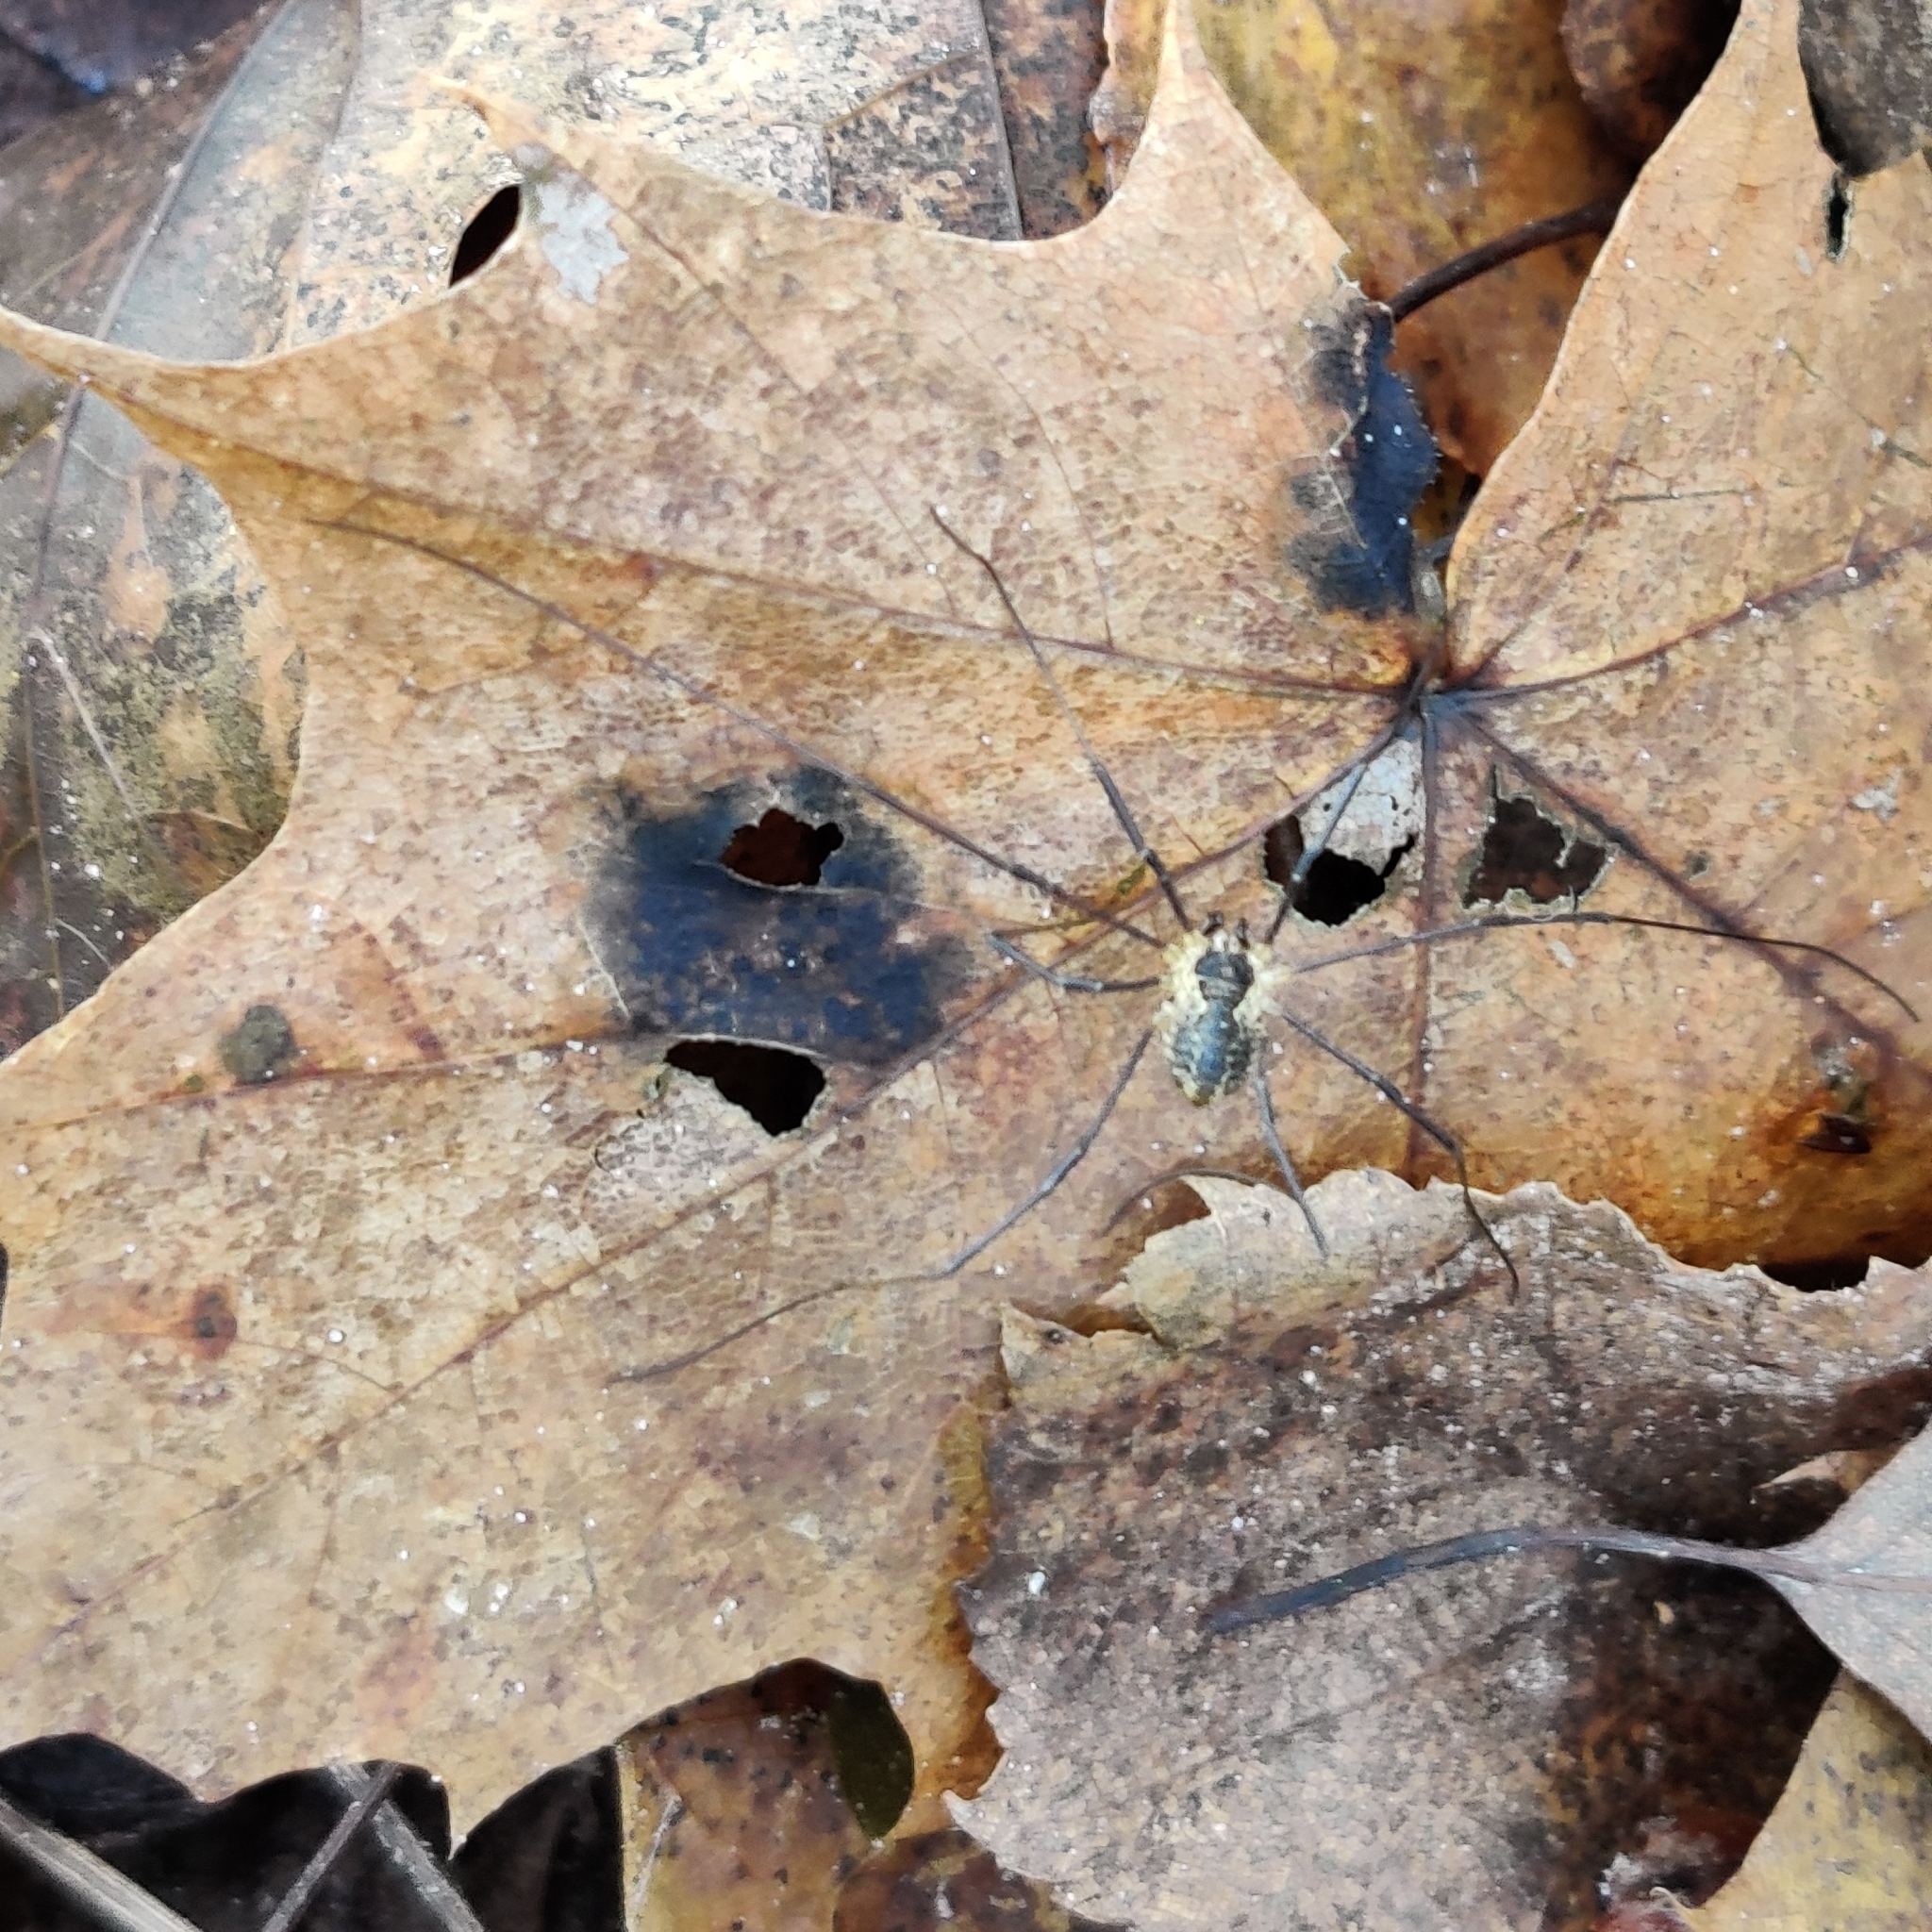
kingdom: Animalia
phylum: Arthropoda
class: Arachnida
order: Opiliones
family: Phalangiidae
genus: Mitopus
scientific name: Mitopus morio
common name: Saddleback harvestman
